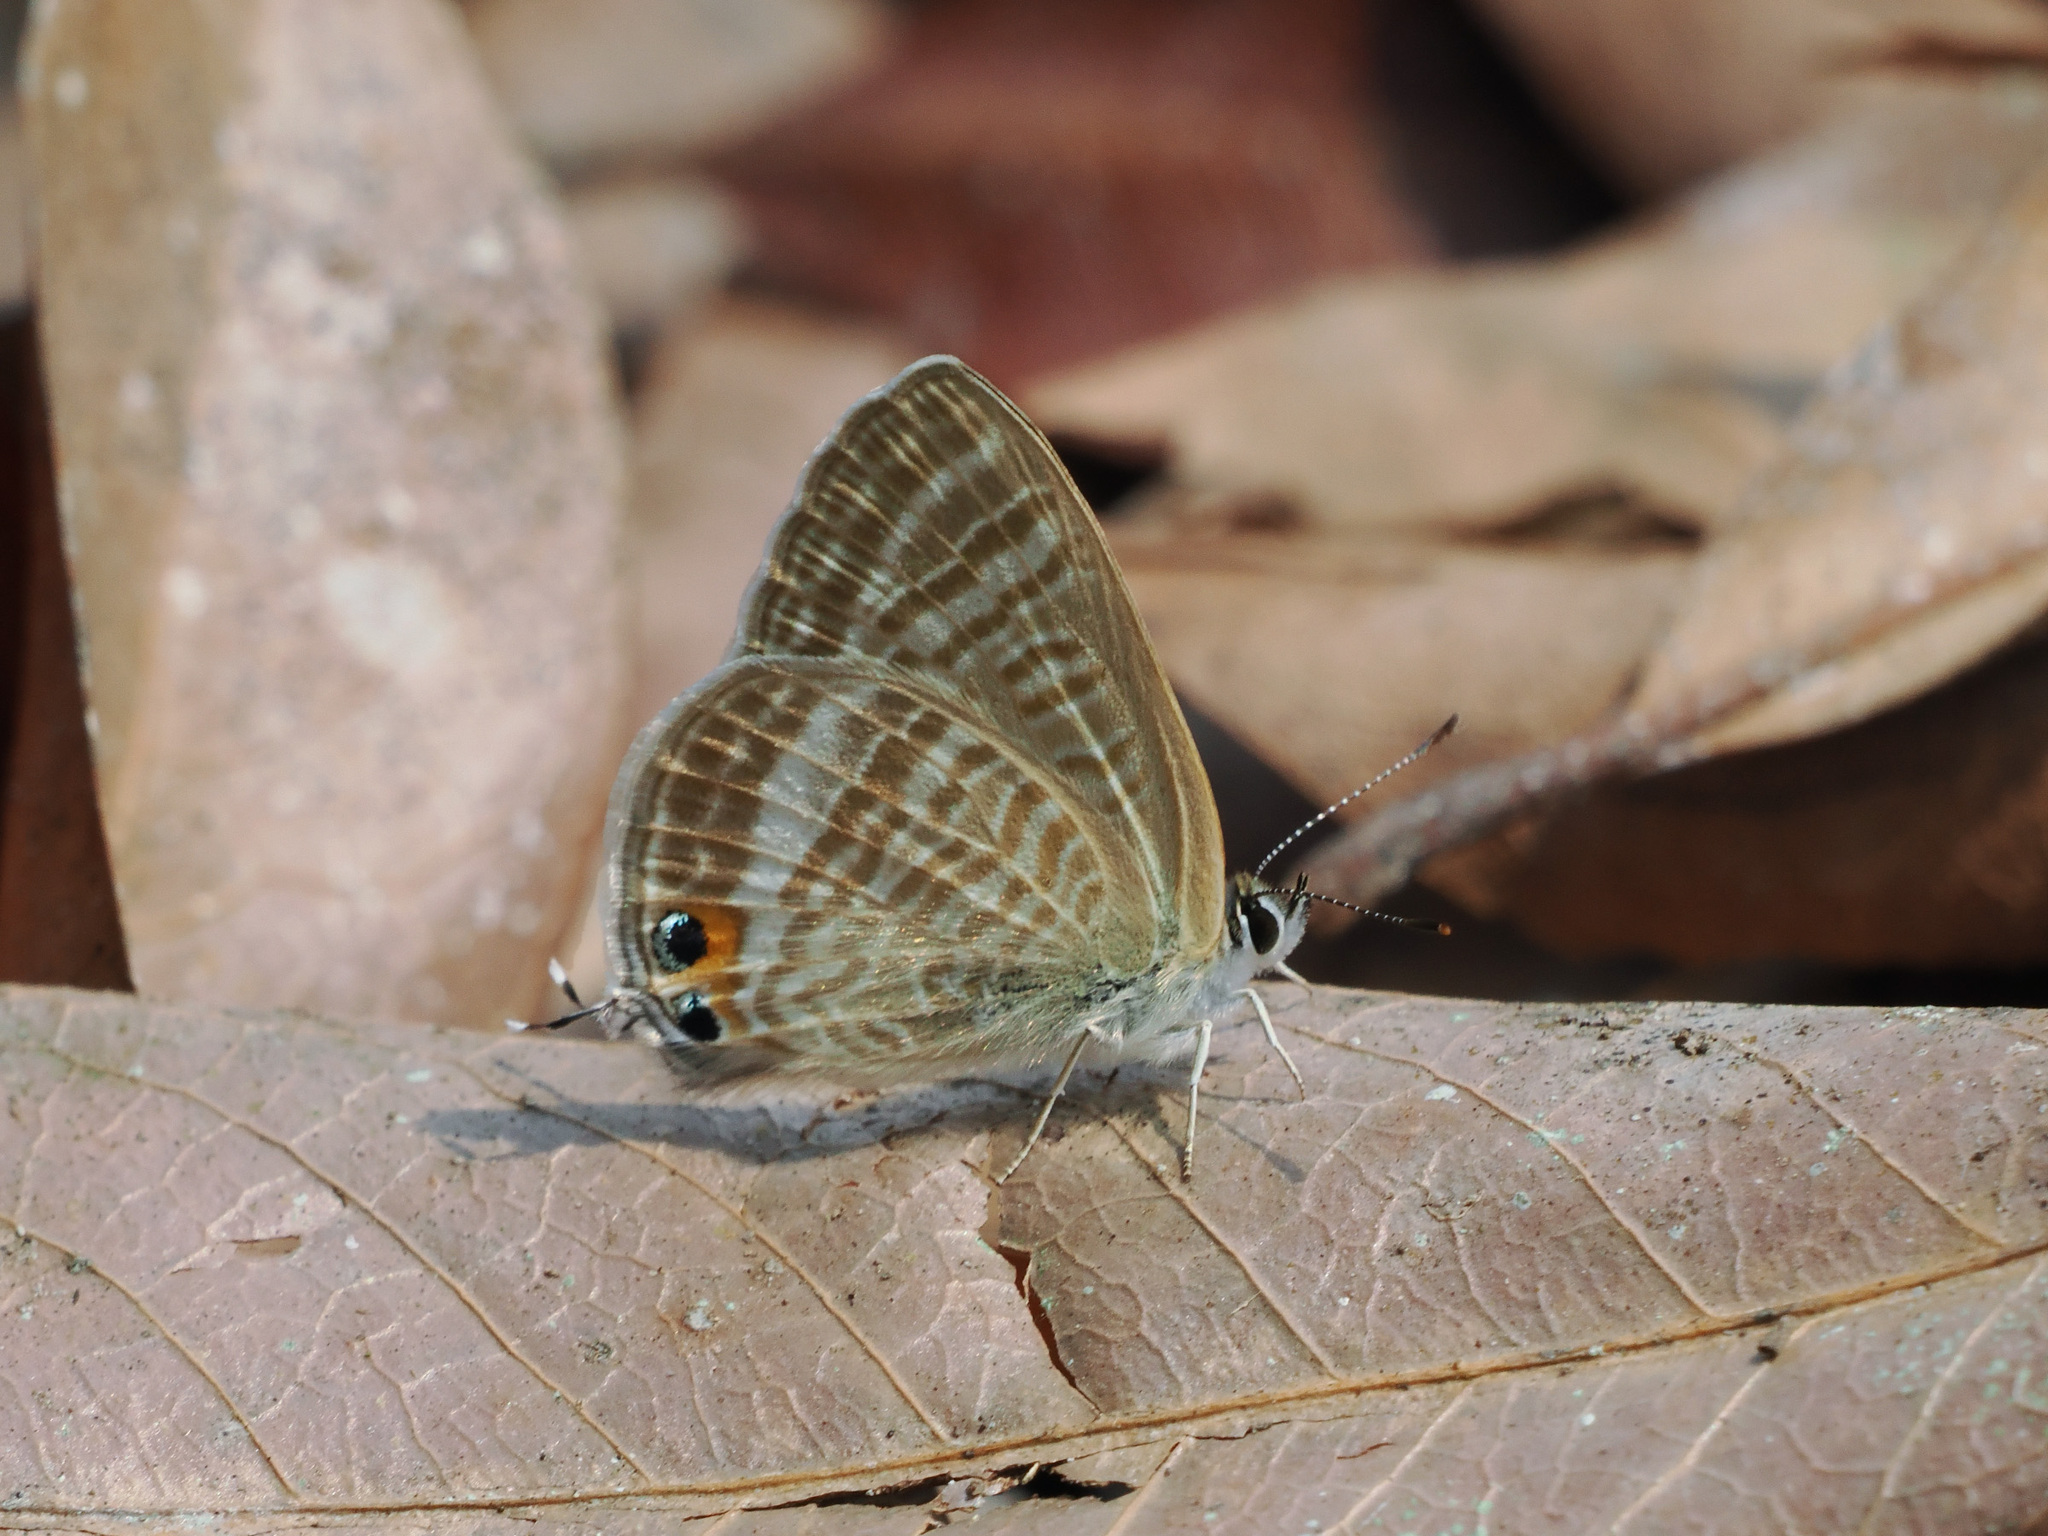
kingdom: Animalia
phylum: Arthropoda
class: Insecta
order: Lepidoptera
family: Lycaenidae
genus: Lampides
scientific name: Lampides boeticus
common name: Long-tailed blue
